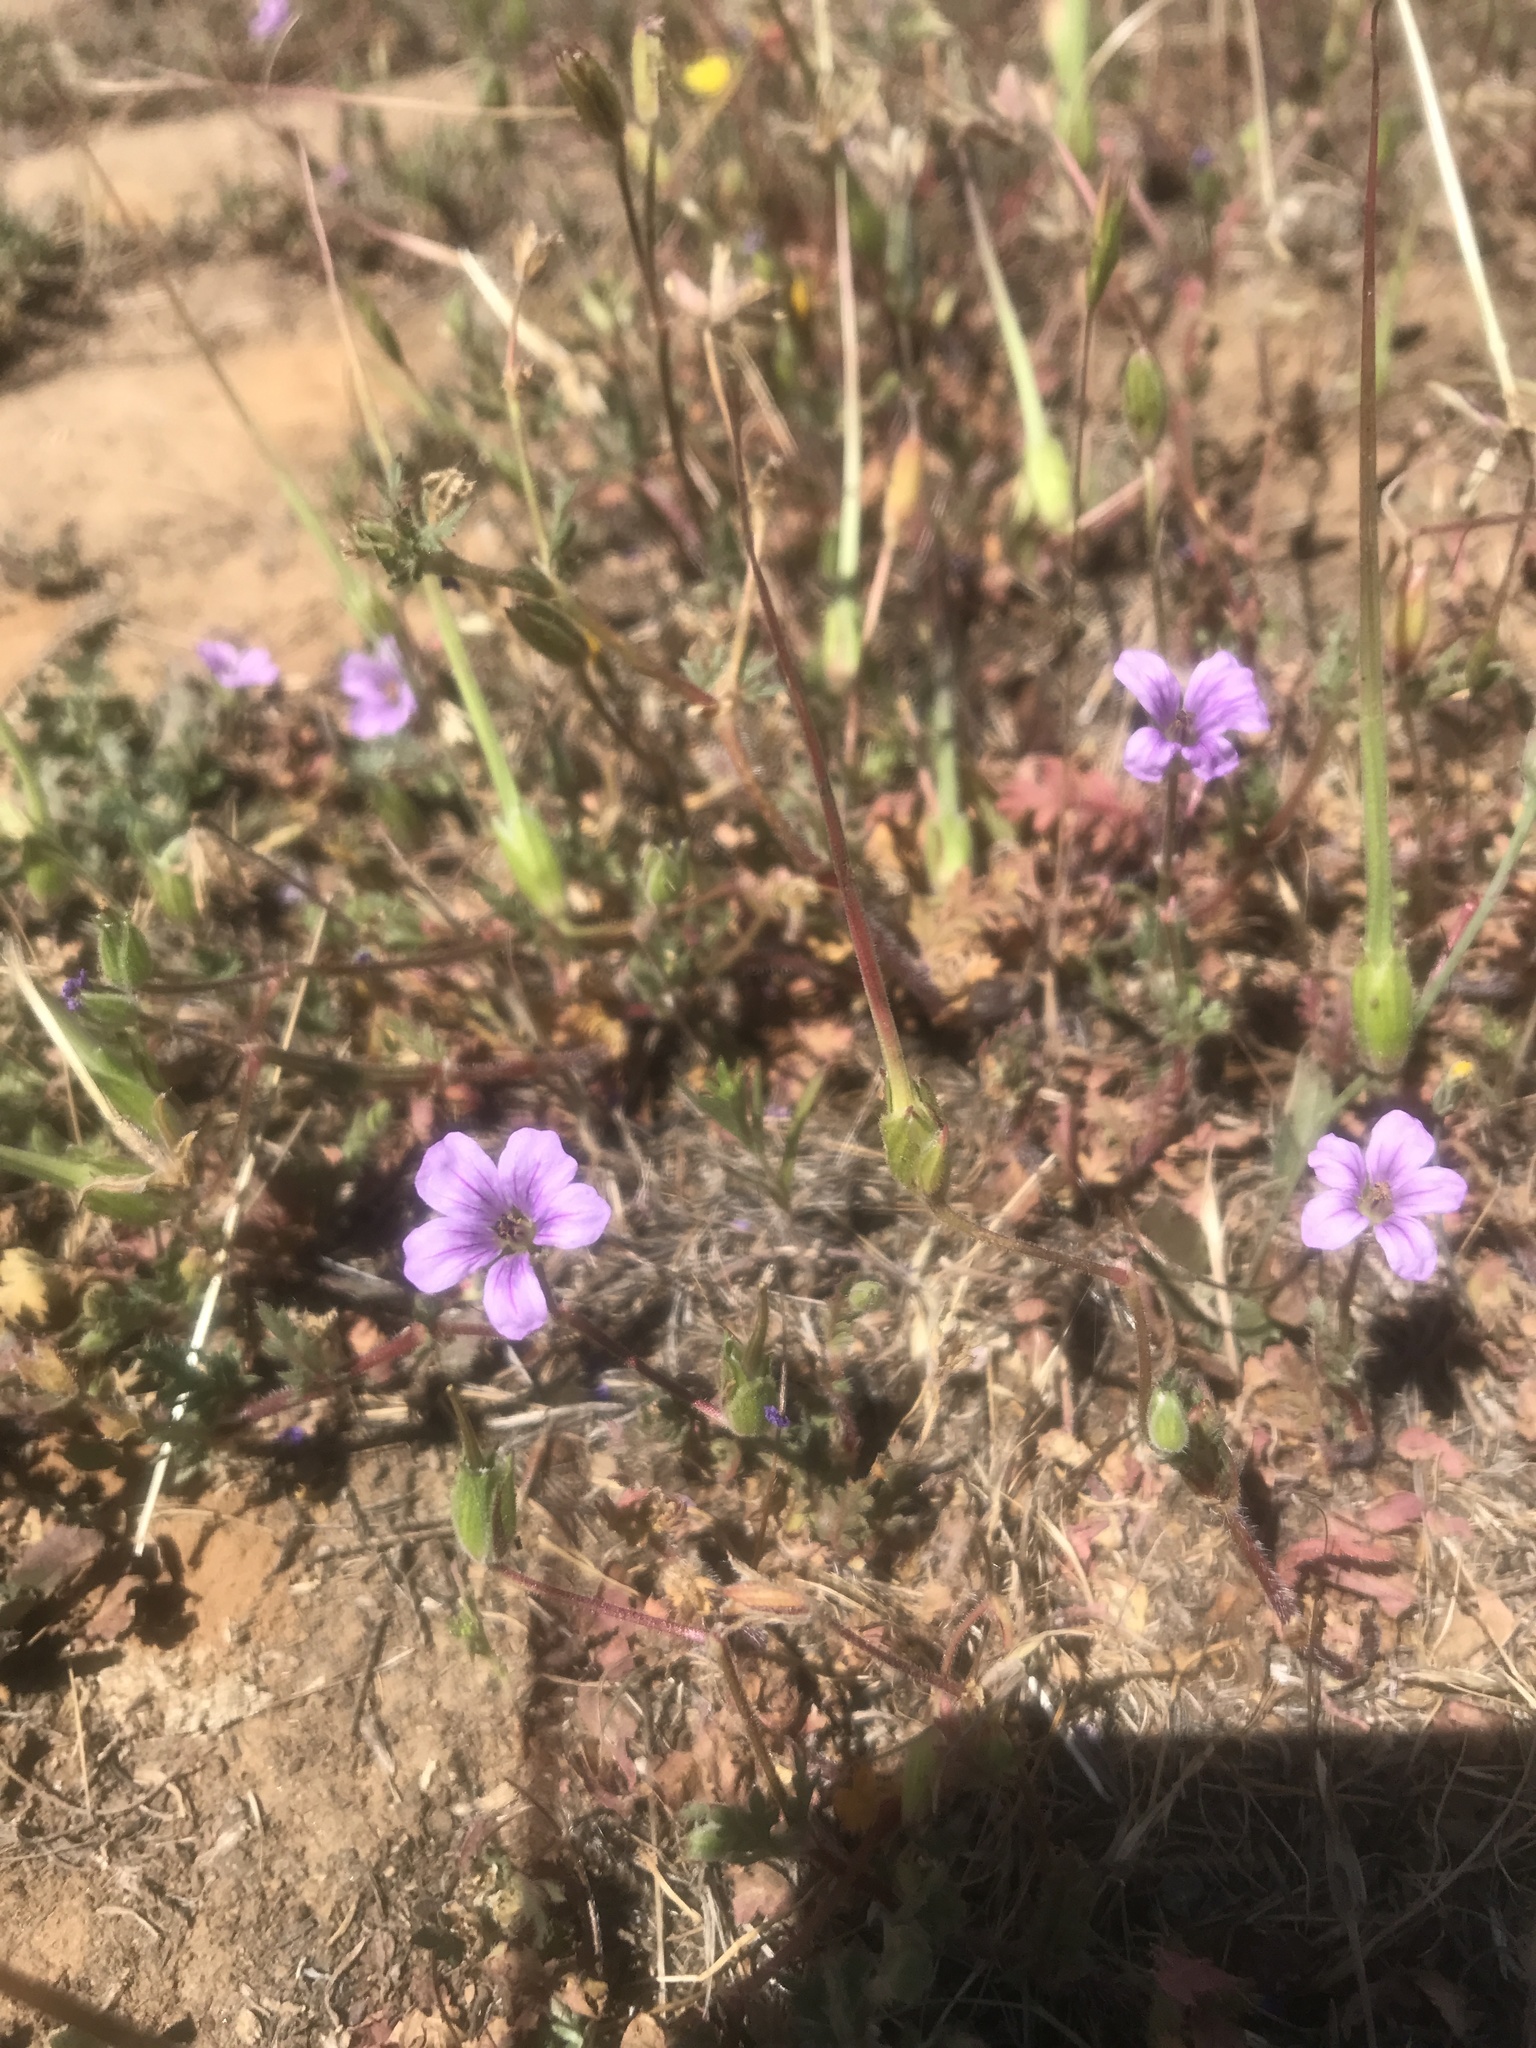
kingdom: Plantae
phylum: Tracheophyta
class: Magnoliopsida
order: Geraniales
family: Geraniaceae
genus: Erodium
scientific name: Erodium botrys
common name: Mediterranean stork's-bill
